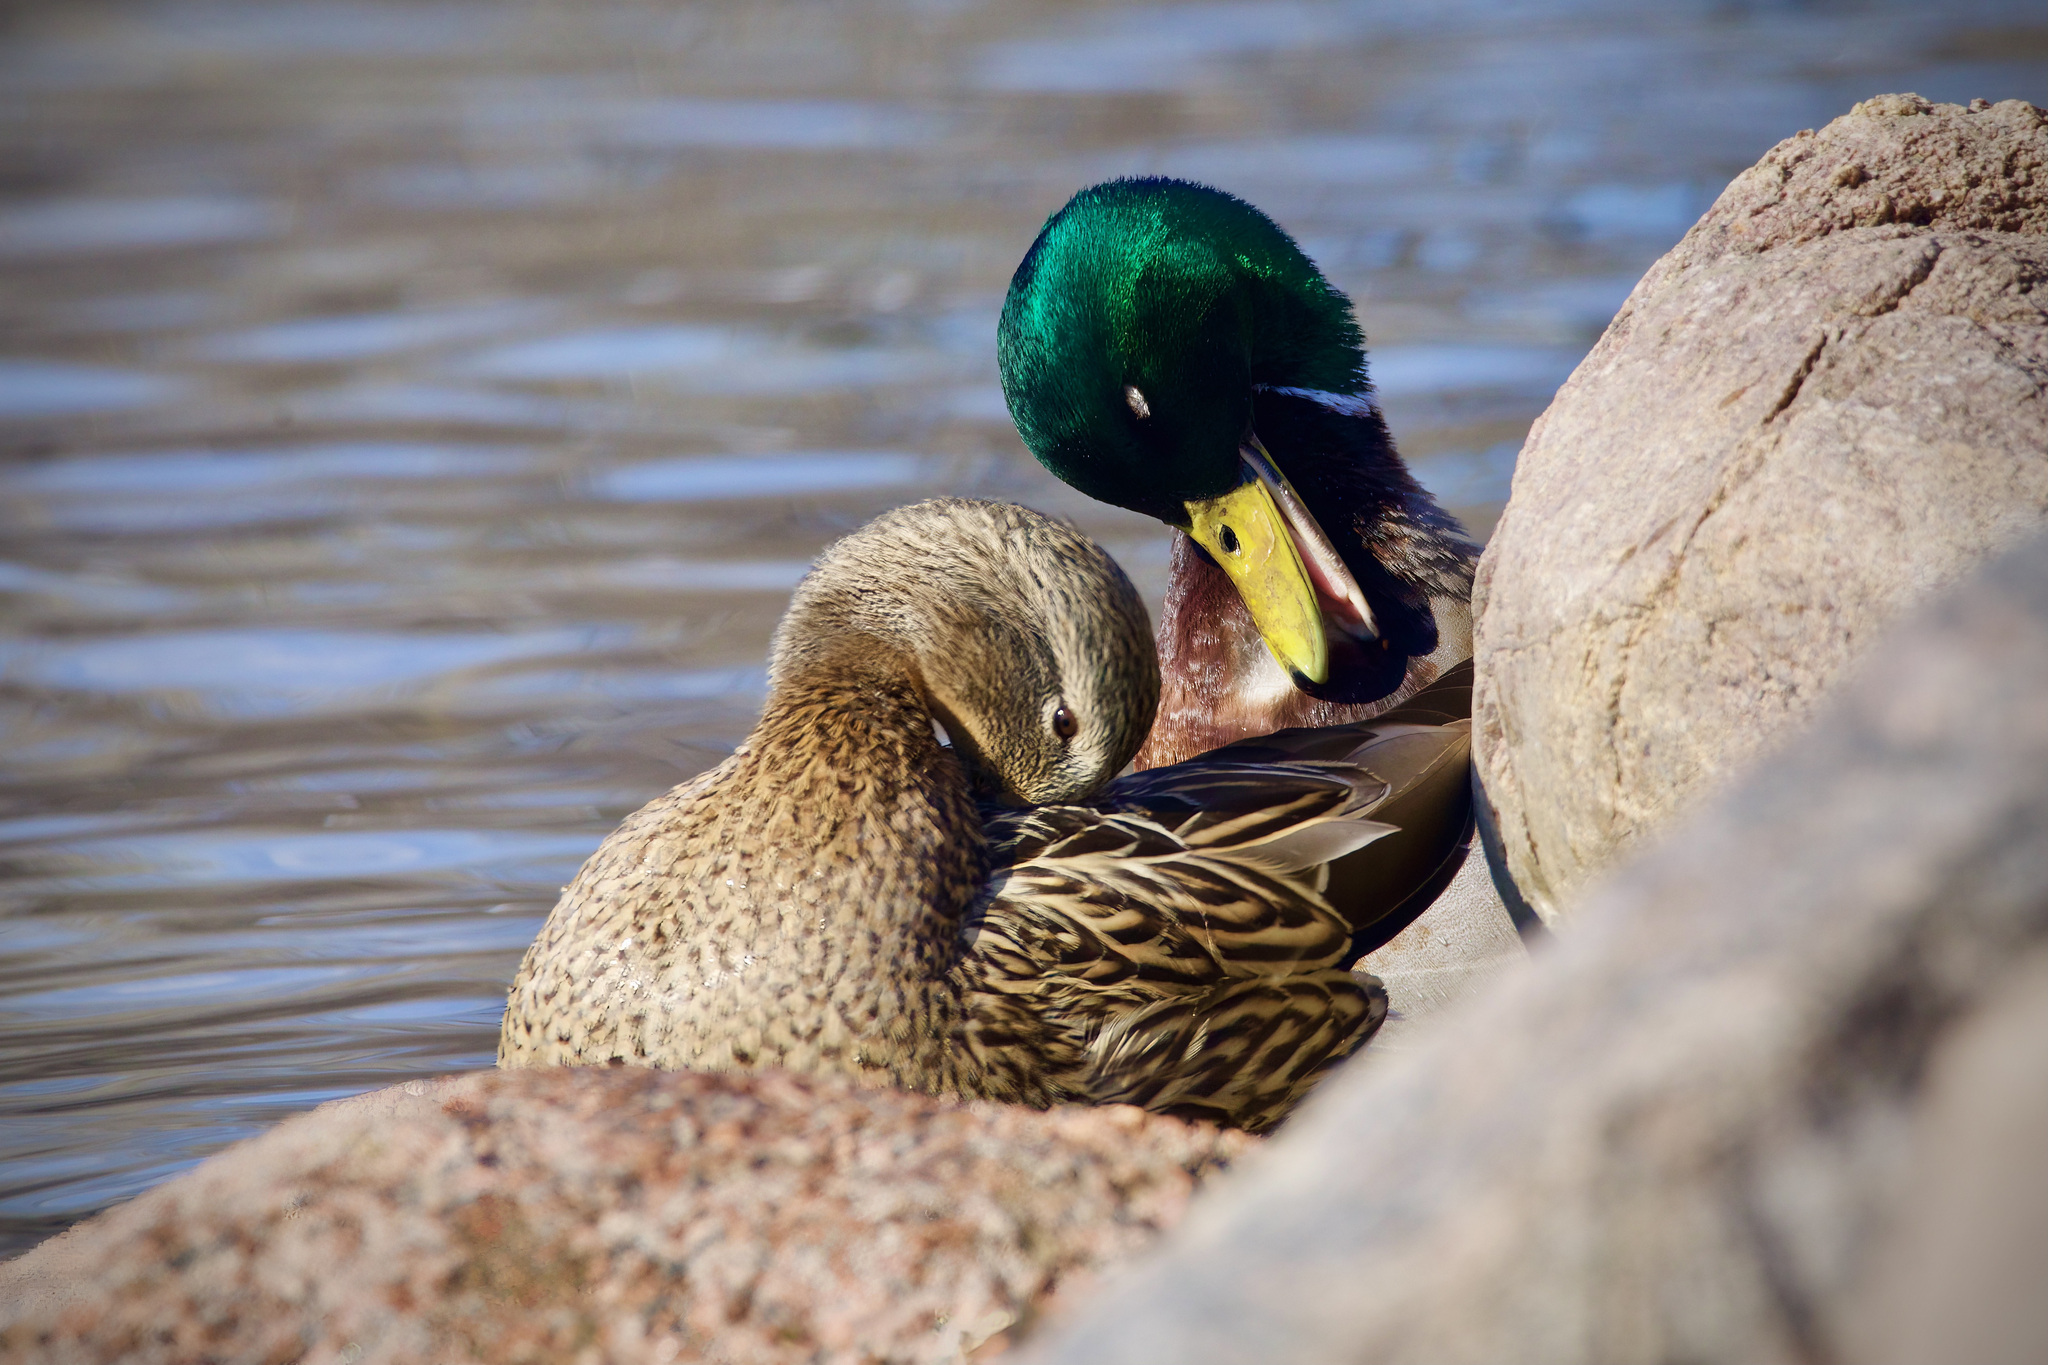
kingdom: Animalia
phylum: Chordata
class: Aves
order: Anseriformes
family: Anatidae
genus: Anas
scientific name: Anas platyrhynchos
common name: Mallard
